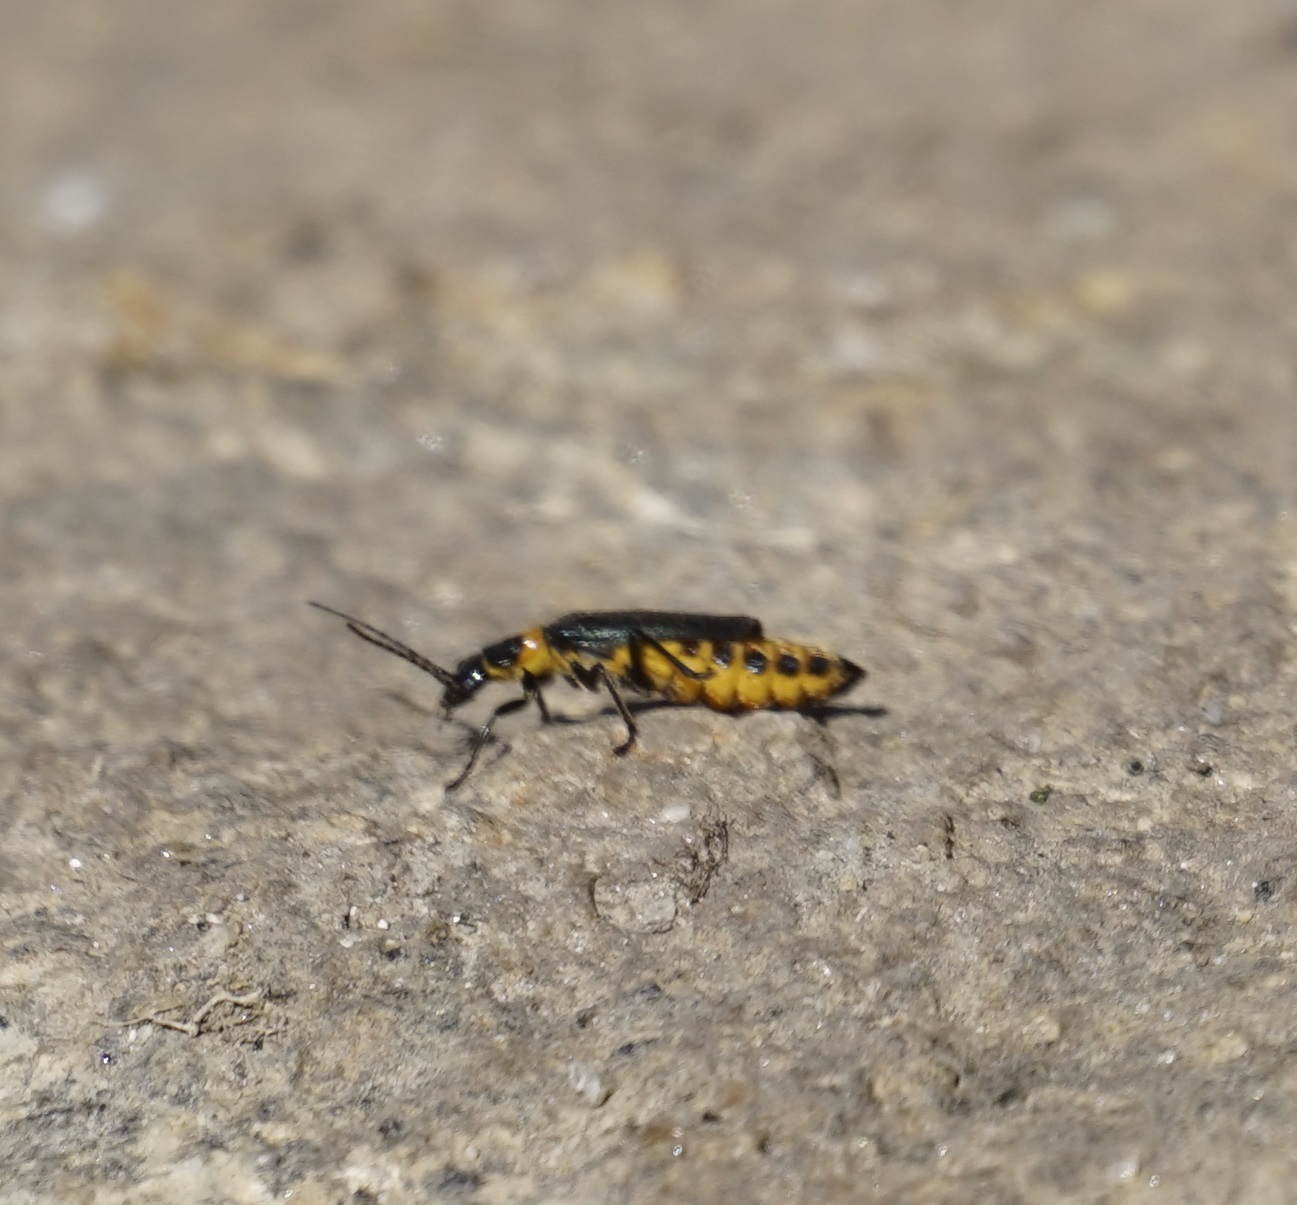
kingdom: Animalia
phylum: Arthropoda
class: Insecta
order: Coleoptera
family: Cantharidae
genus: Chauliognathus
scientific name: Chauliognathus
